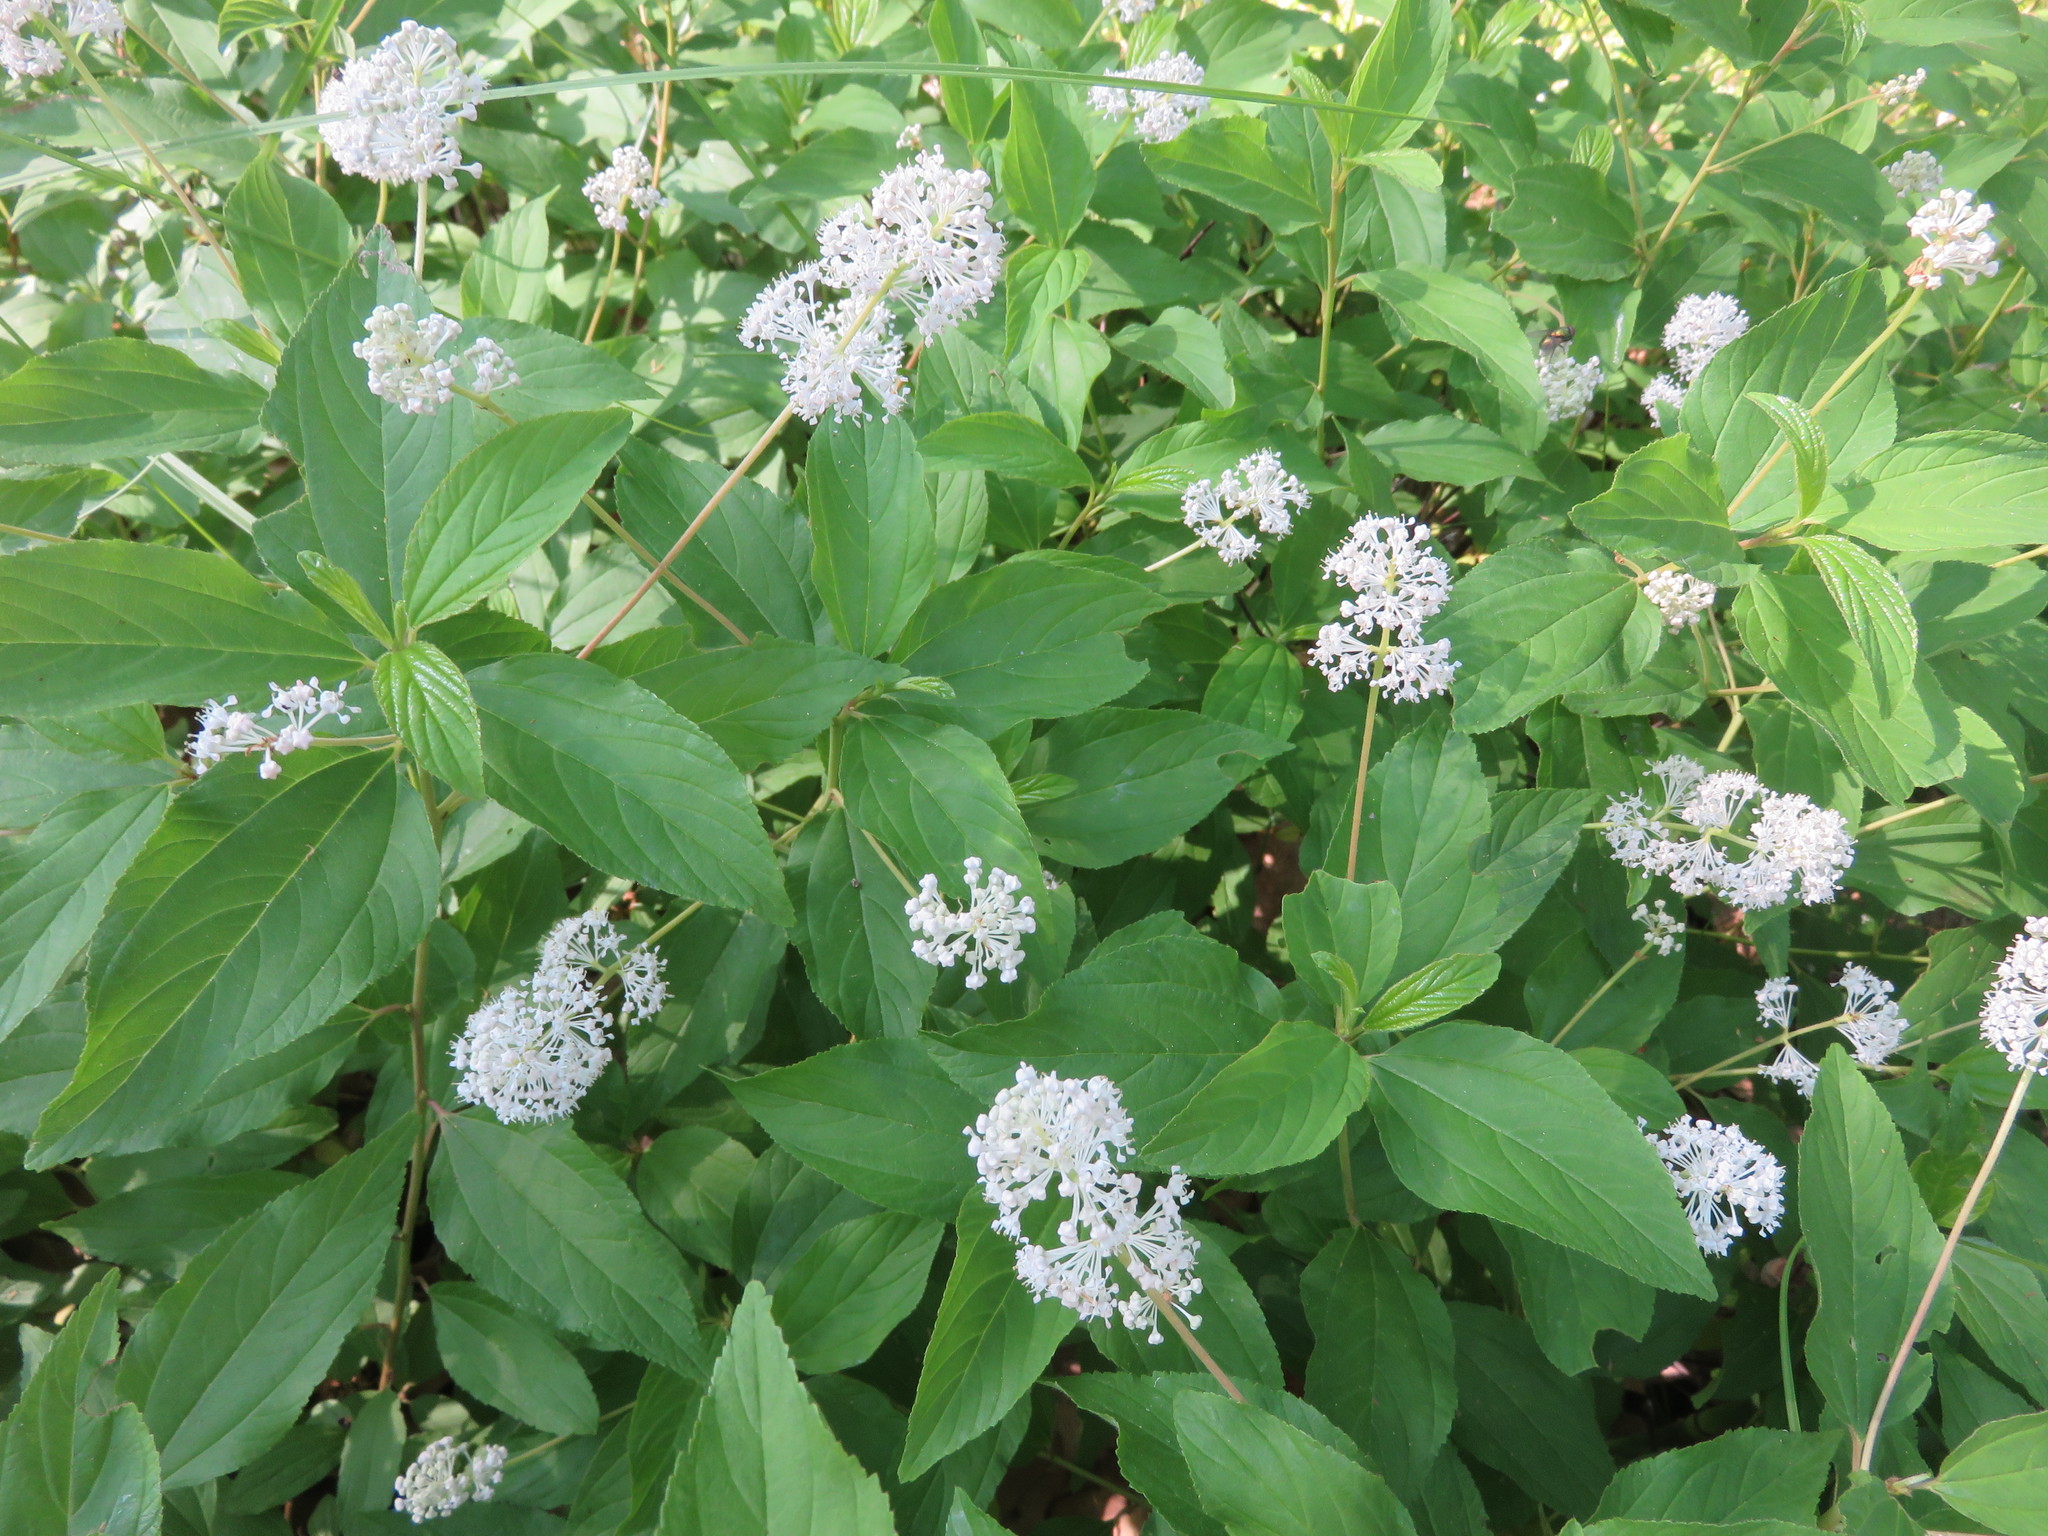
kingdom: Plantae
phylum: Tracheophyta
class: Magnoliopsida
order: Rosales
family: Rhamnaceae
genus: Ceanothus
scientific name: Ceanothus americanus
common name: Redroot
